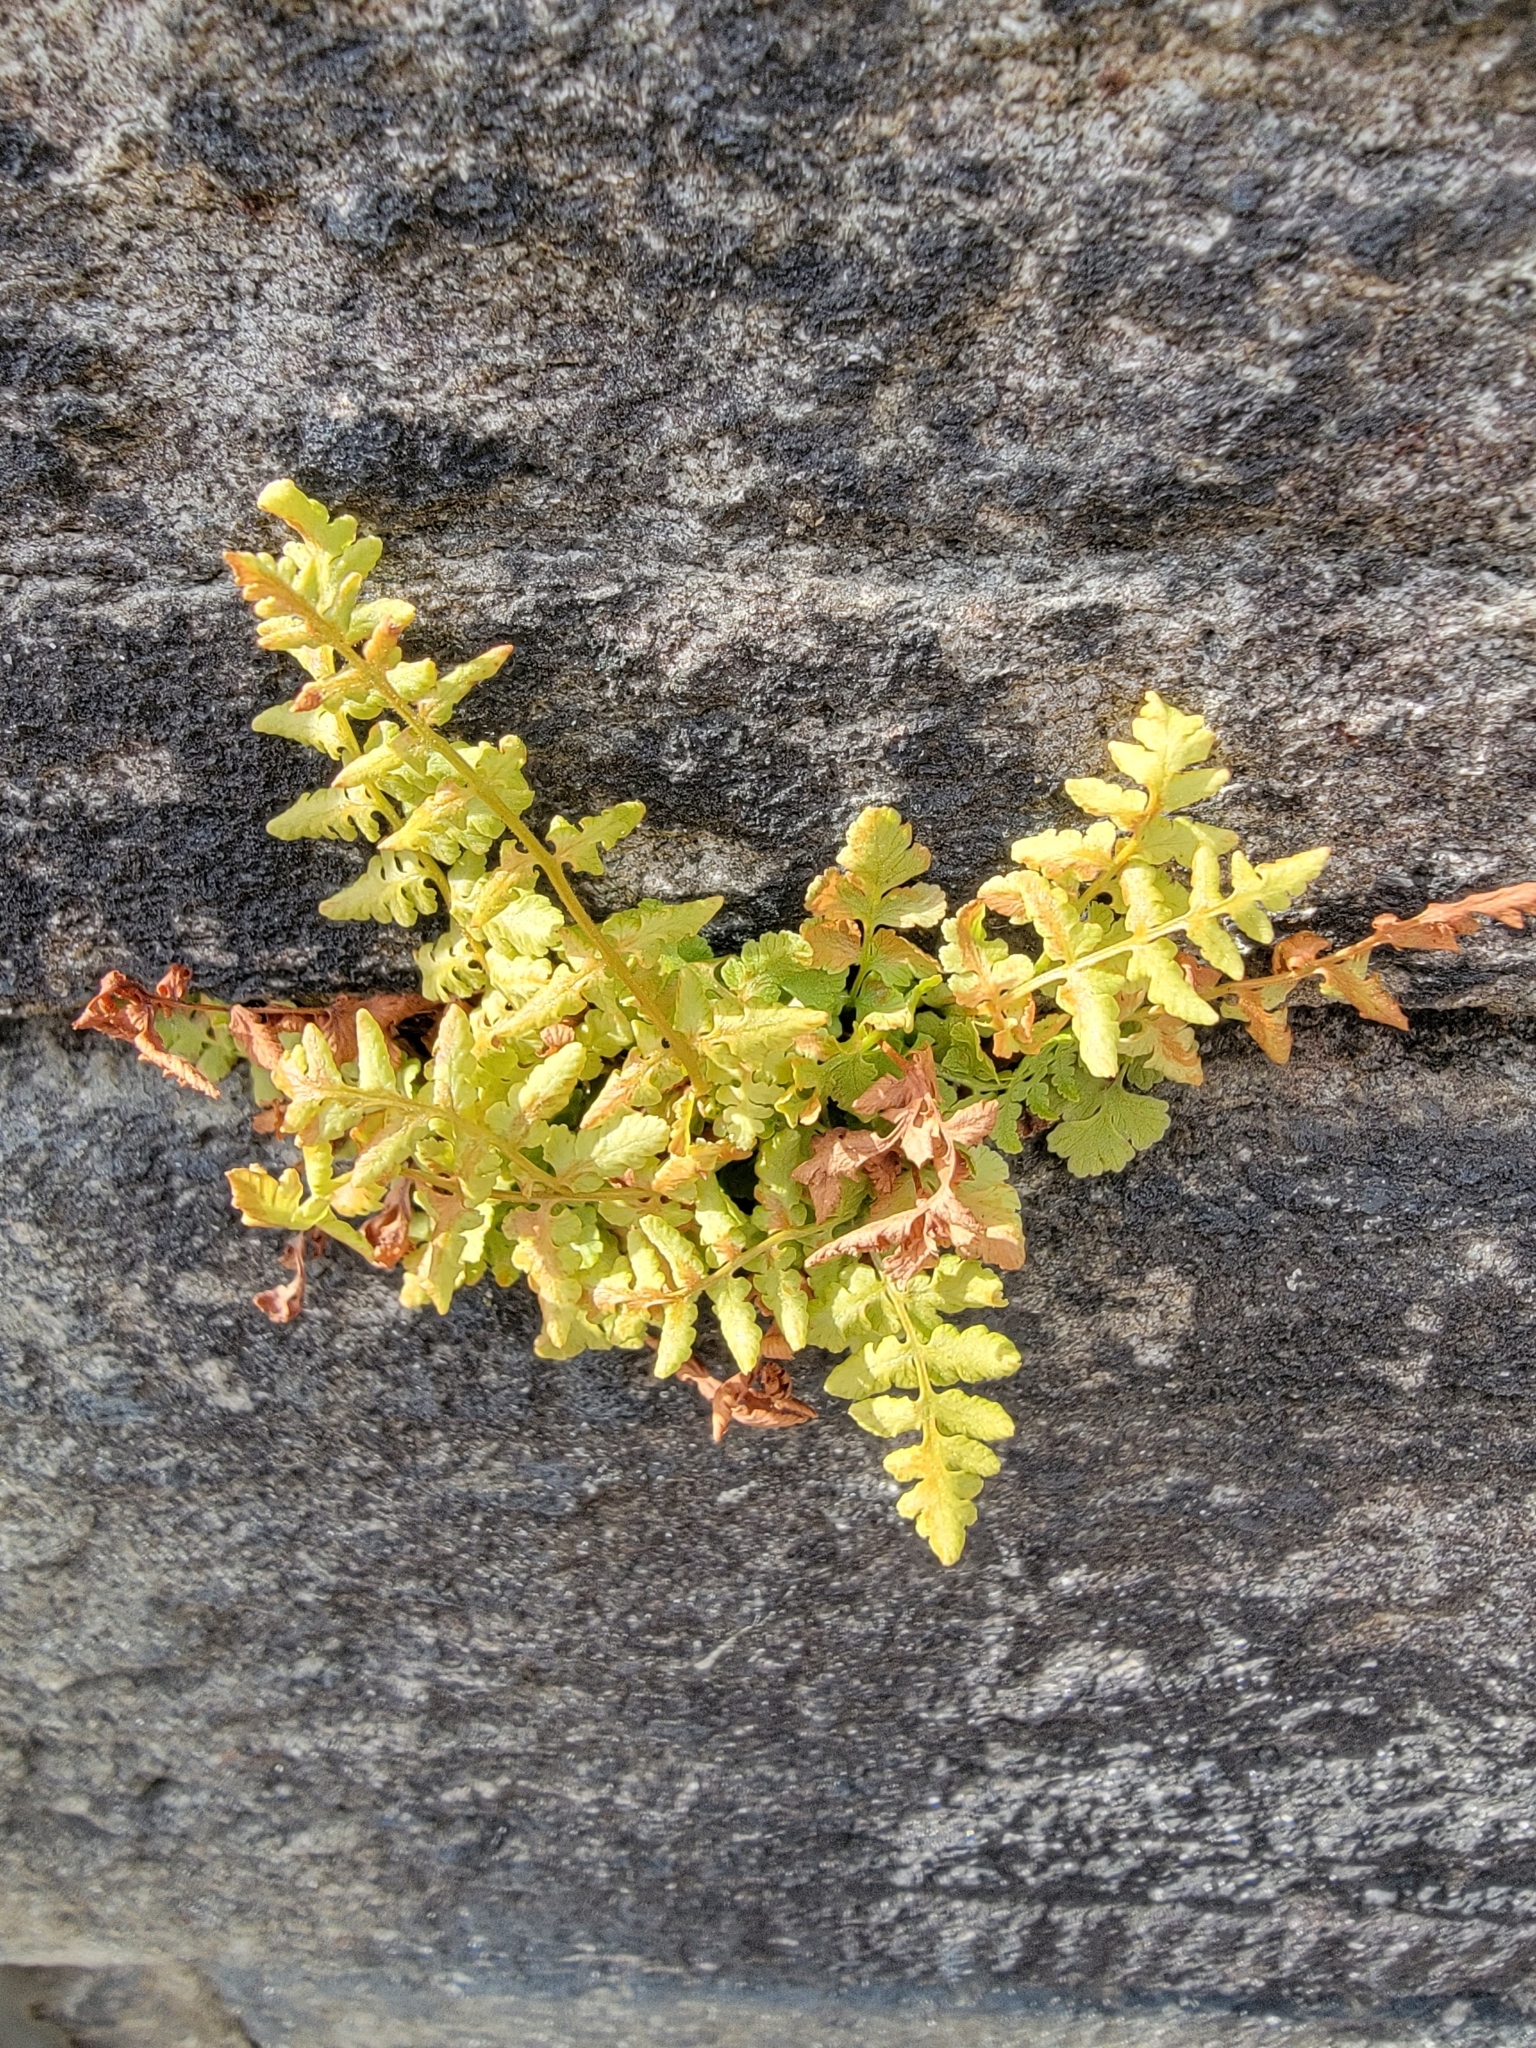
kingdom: Plantae
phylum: Tracheophyta
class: Polypodiopsida
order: Polypodiales
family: Woodsiaceae
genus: Physematium
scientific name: Physematium obtusum
